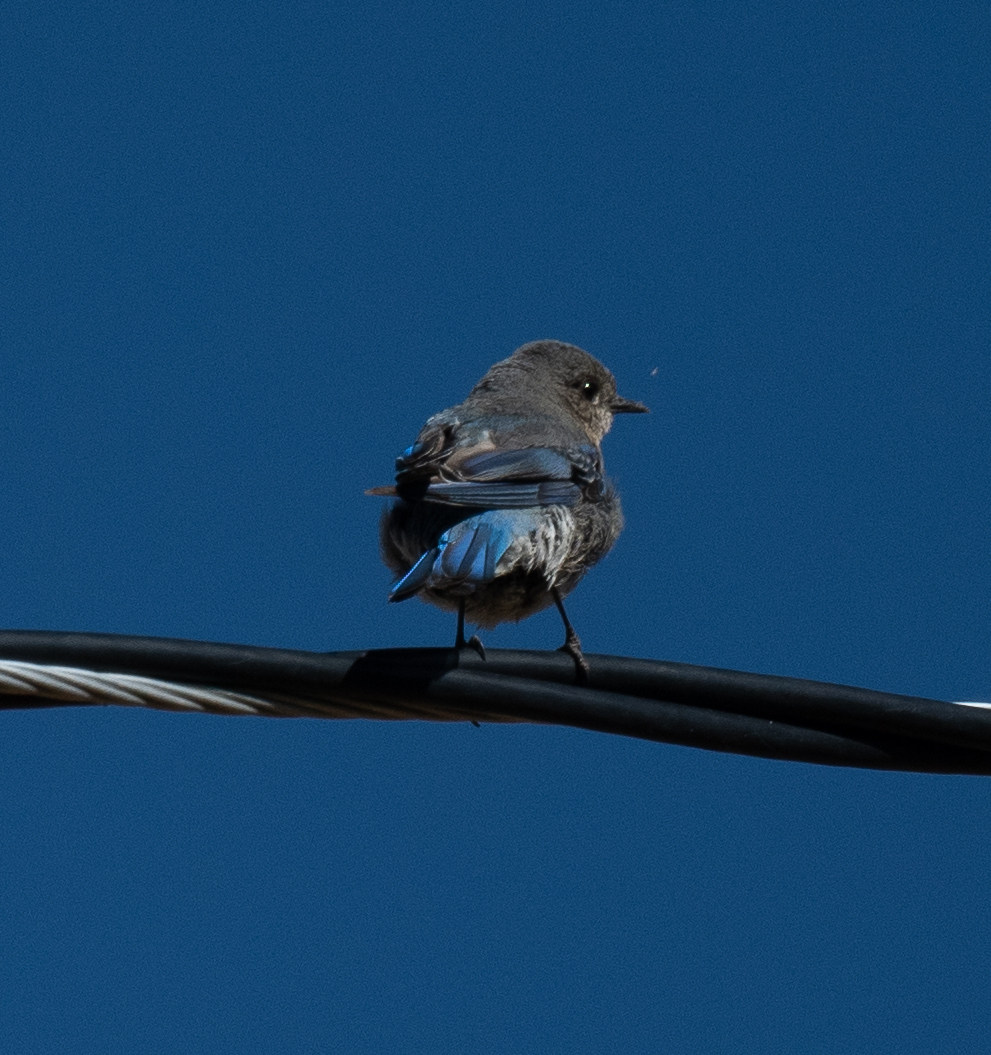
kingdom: Animalia
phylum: Chordata
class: Aves
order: Passeriformes
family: Turdidae
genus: Sialia
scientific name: Sialia currucoides
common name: Mountain bluebird
